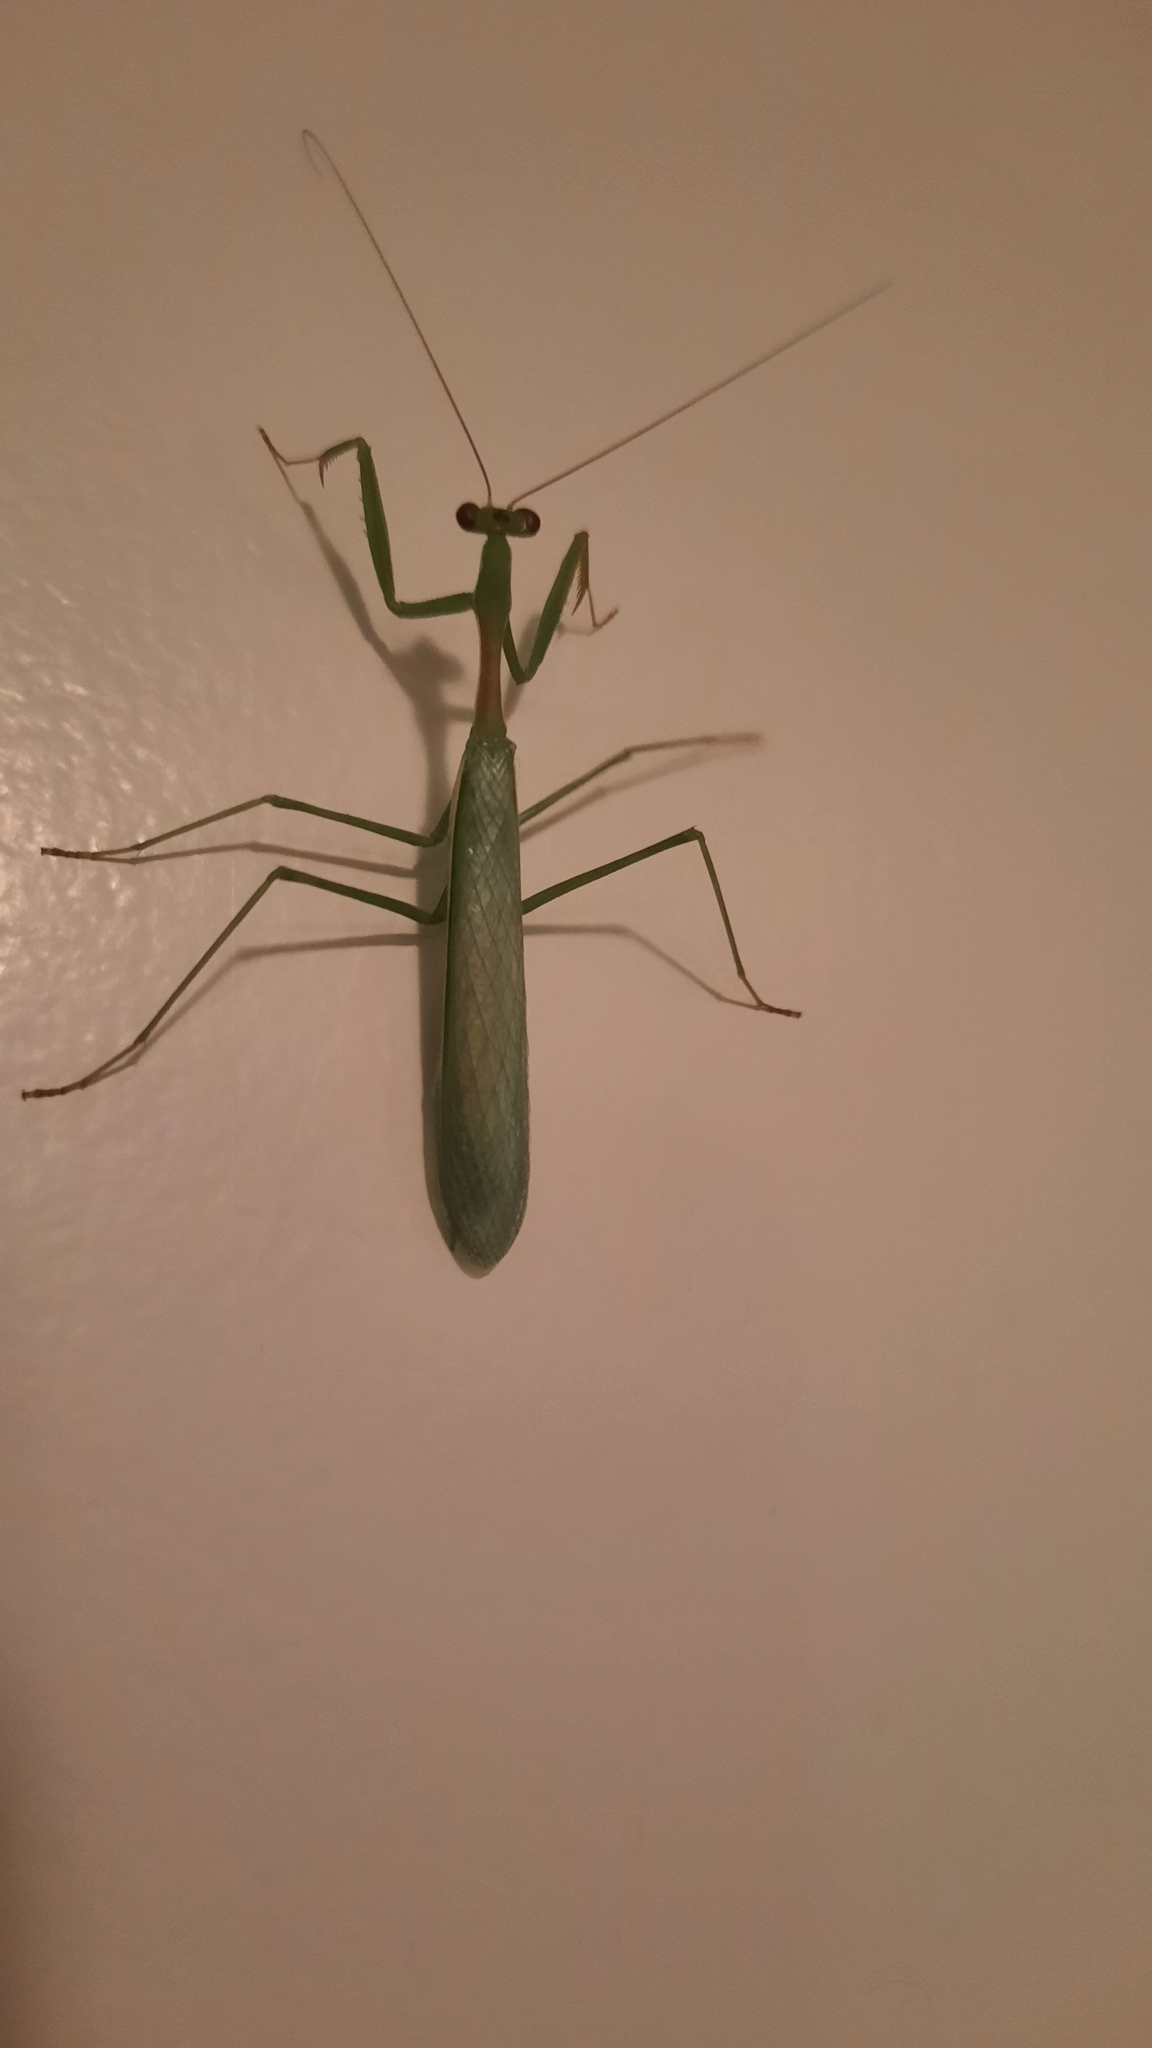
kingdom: Animalia
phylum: Arthropoda
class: Insecta
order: Mantodea
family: Miomantidae
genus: Miomantis
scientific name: Miomantis caffra
